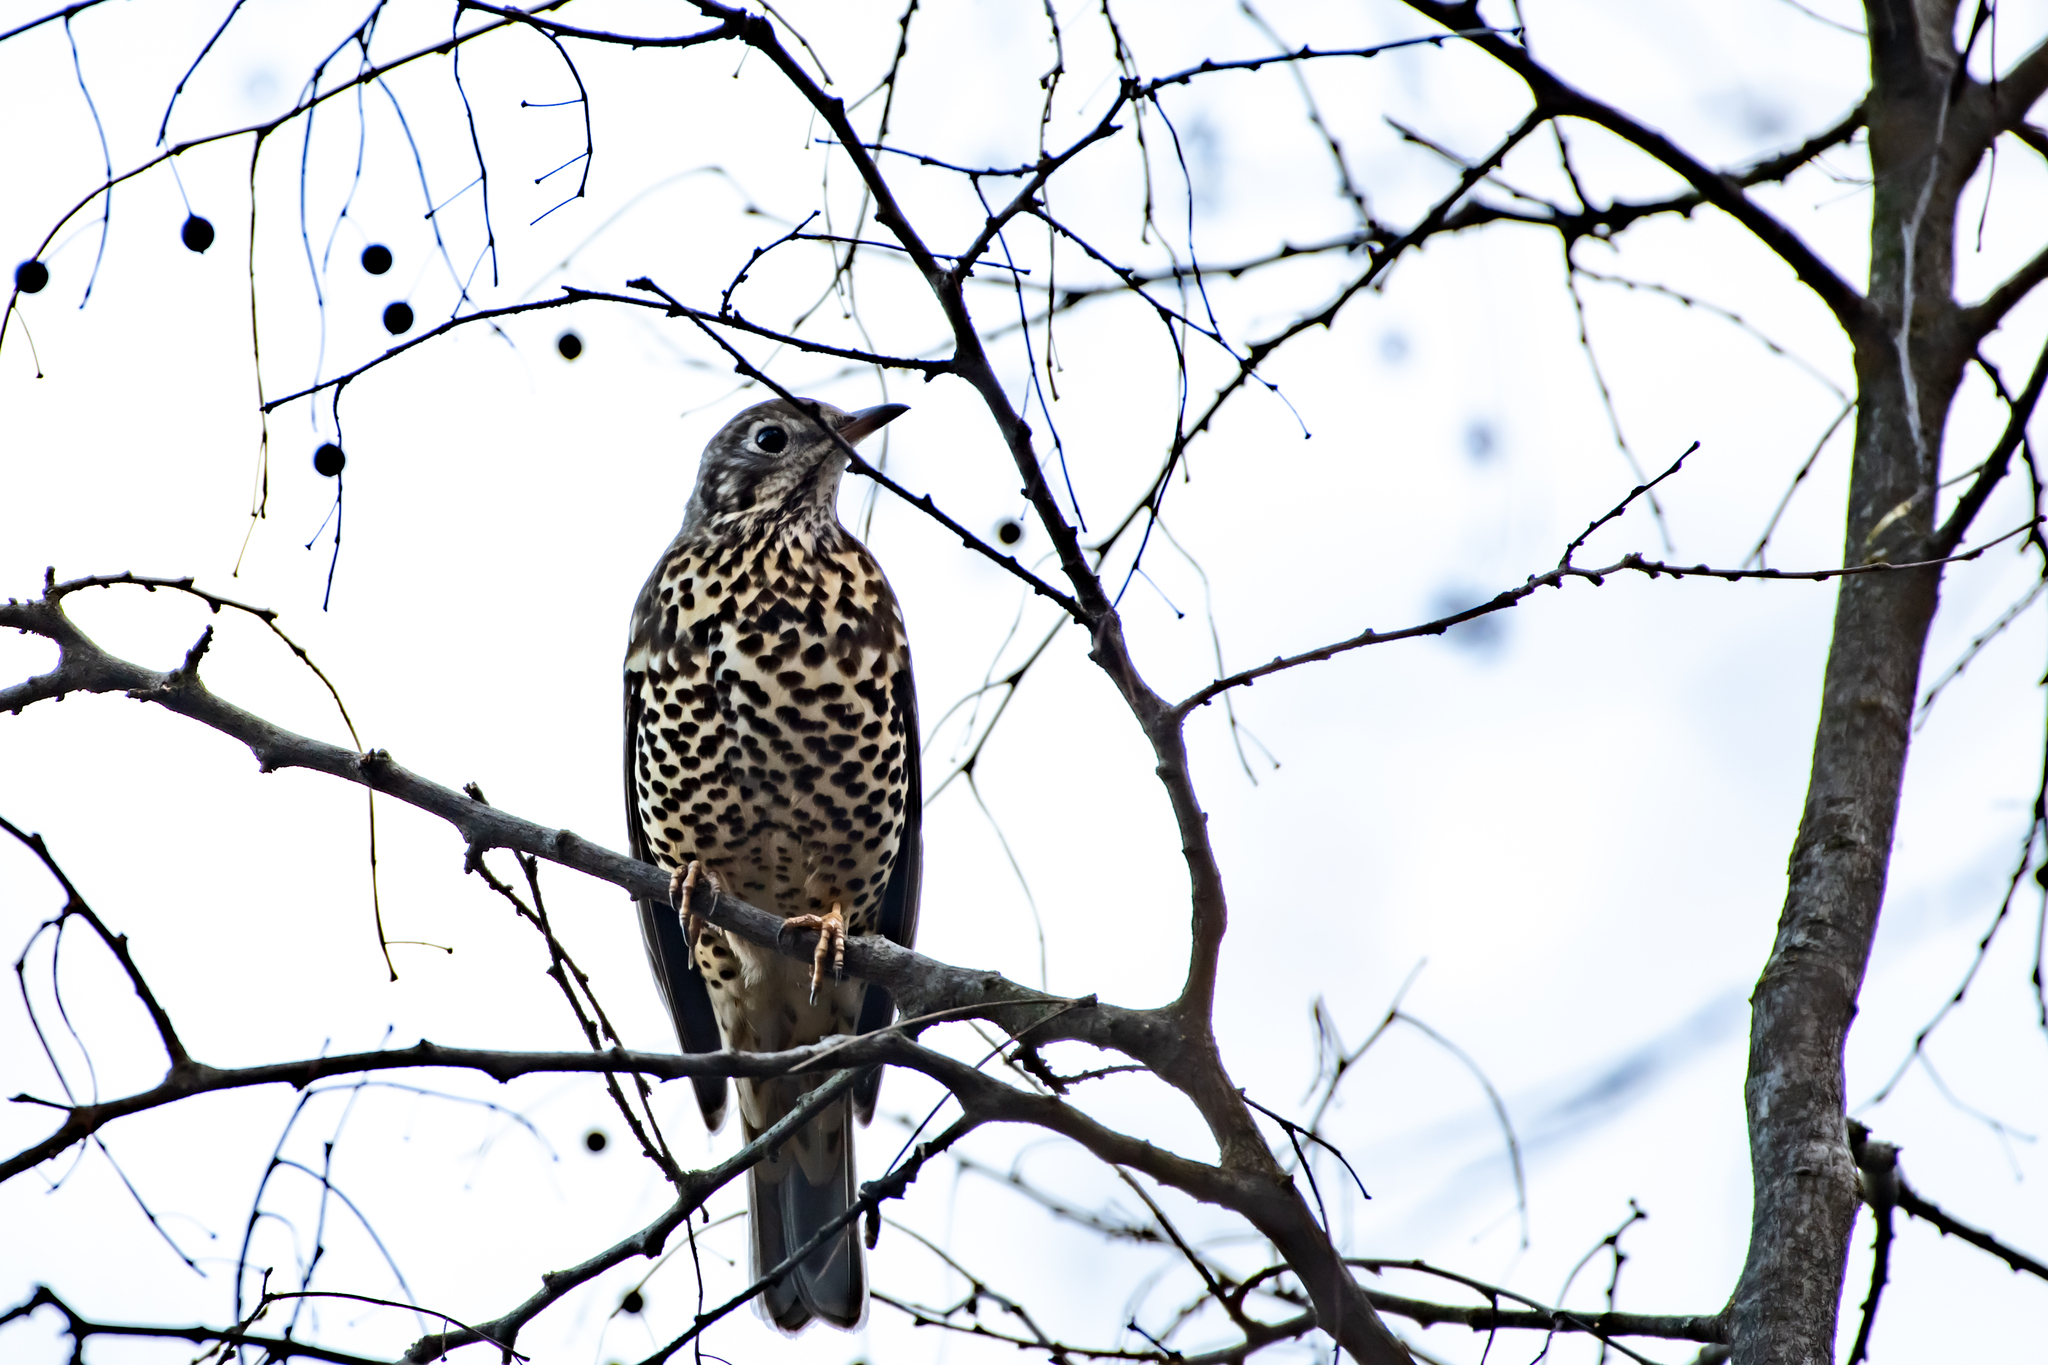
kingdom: Animalia
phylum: Chordata
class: Aves
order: Passeriformes
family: Turdidae
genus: Turdus
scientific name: Turdus viscivorus
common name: Mistle thrush
